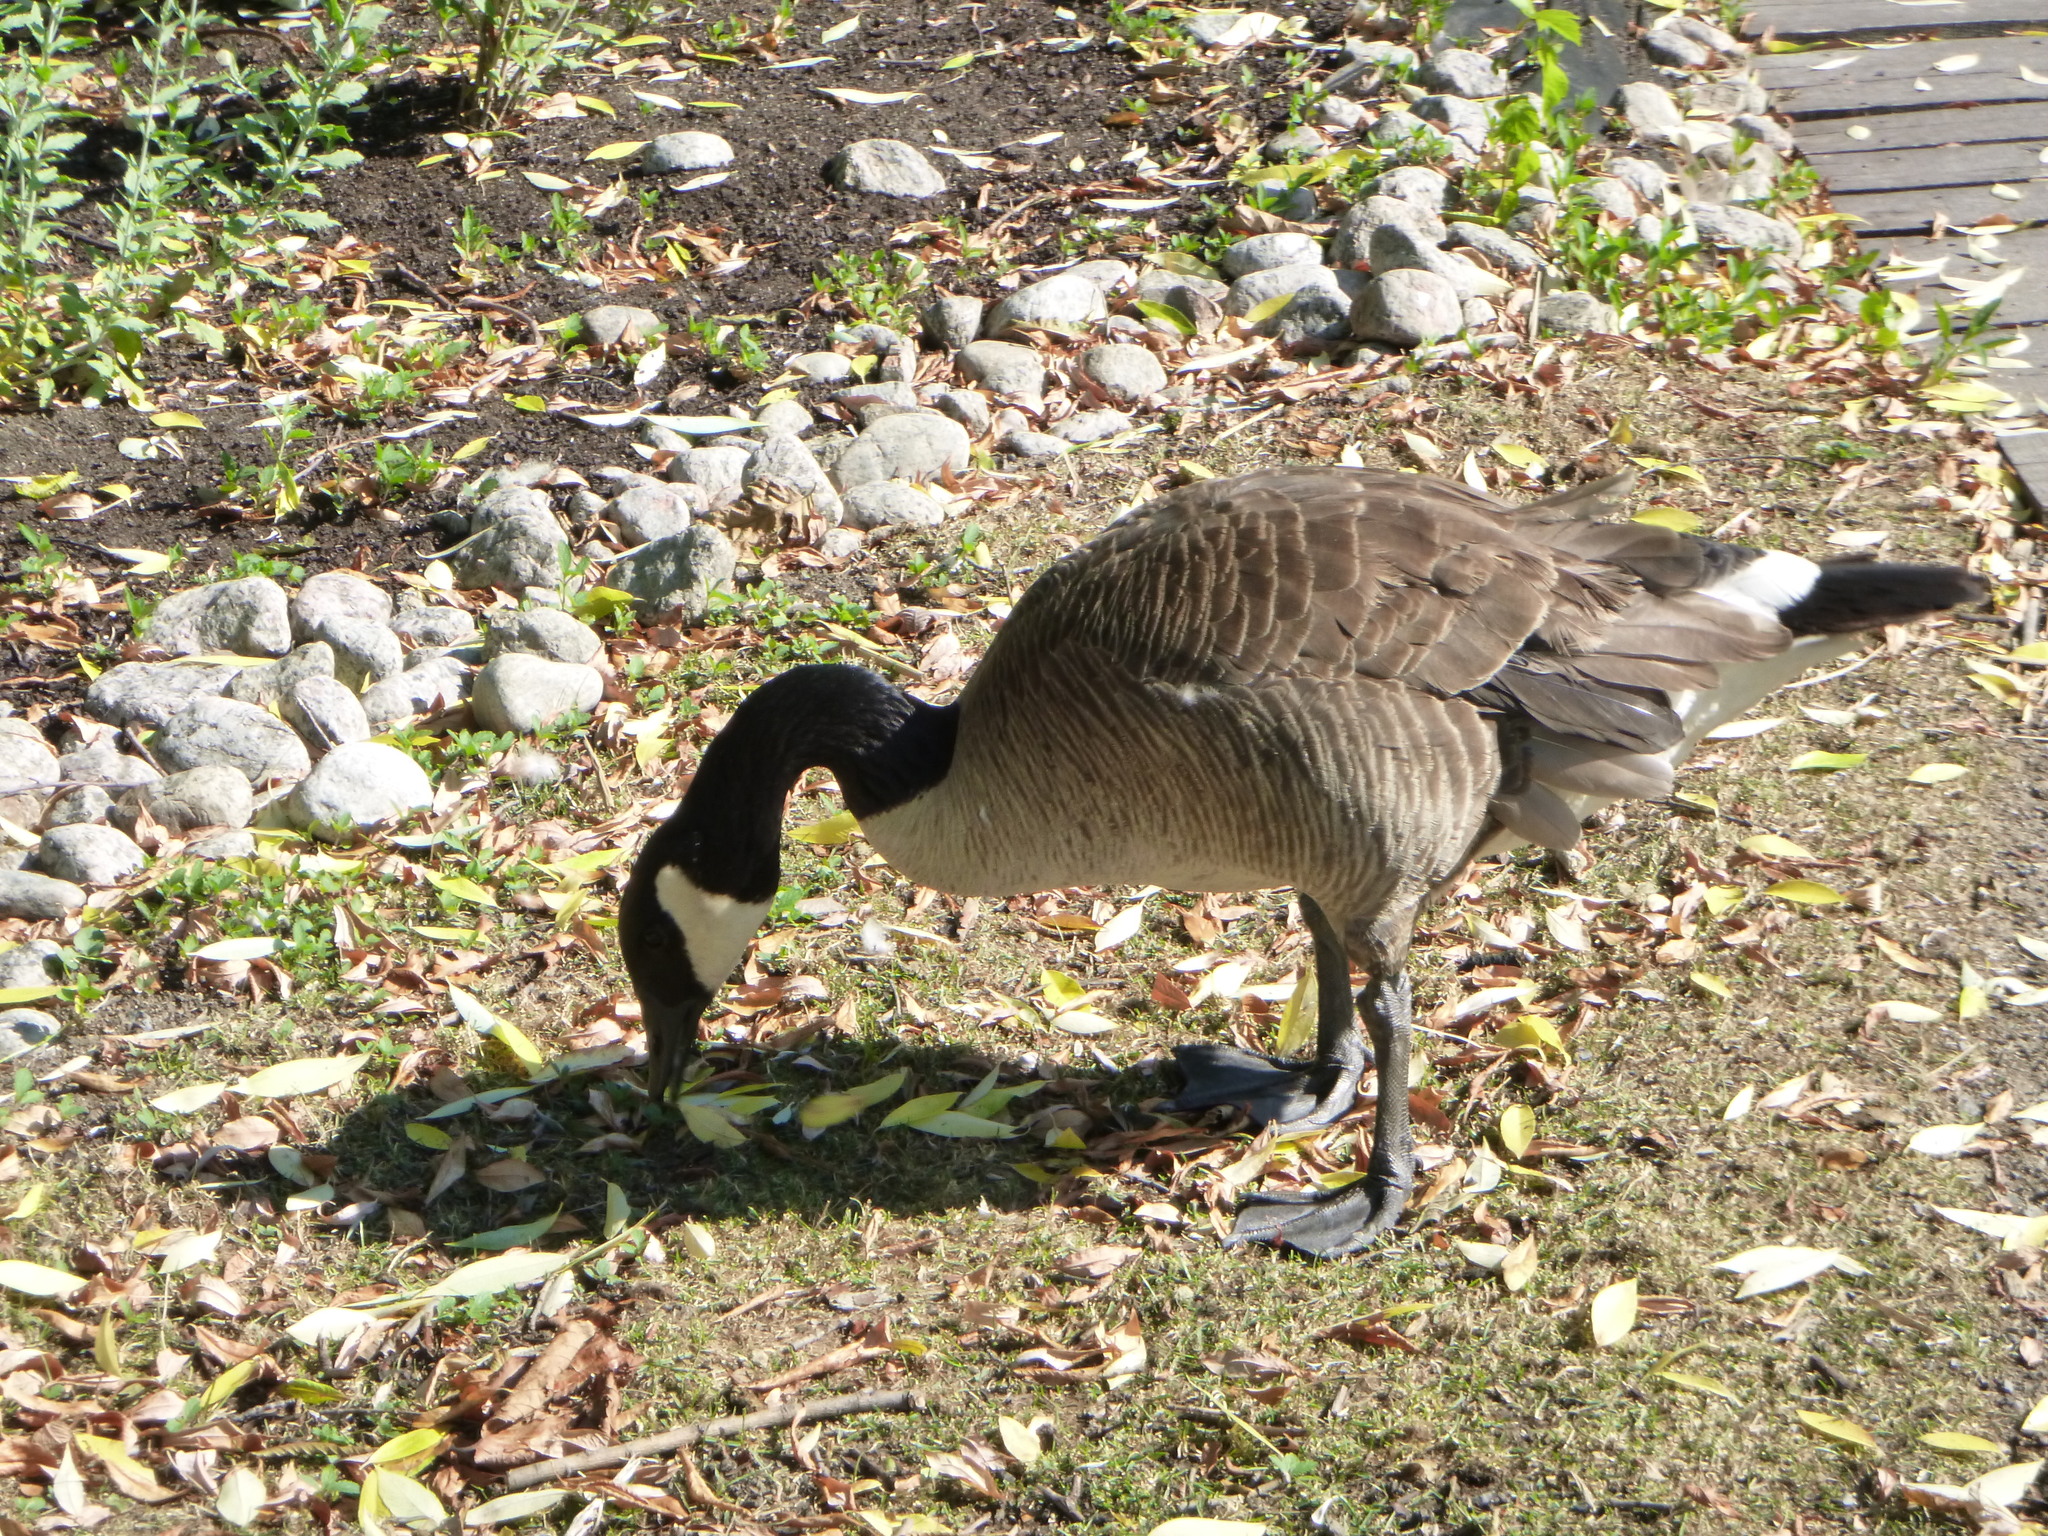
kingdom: Animalia
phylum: Chordata
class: Aves
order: Anseriformes
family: Anatidae
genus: Branta
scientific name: Branta canadensis
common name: Canada goose
